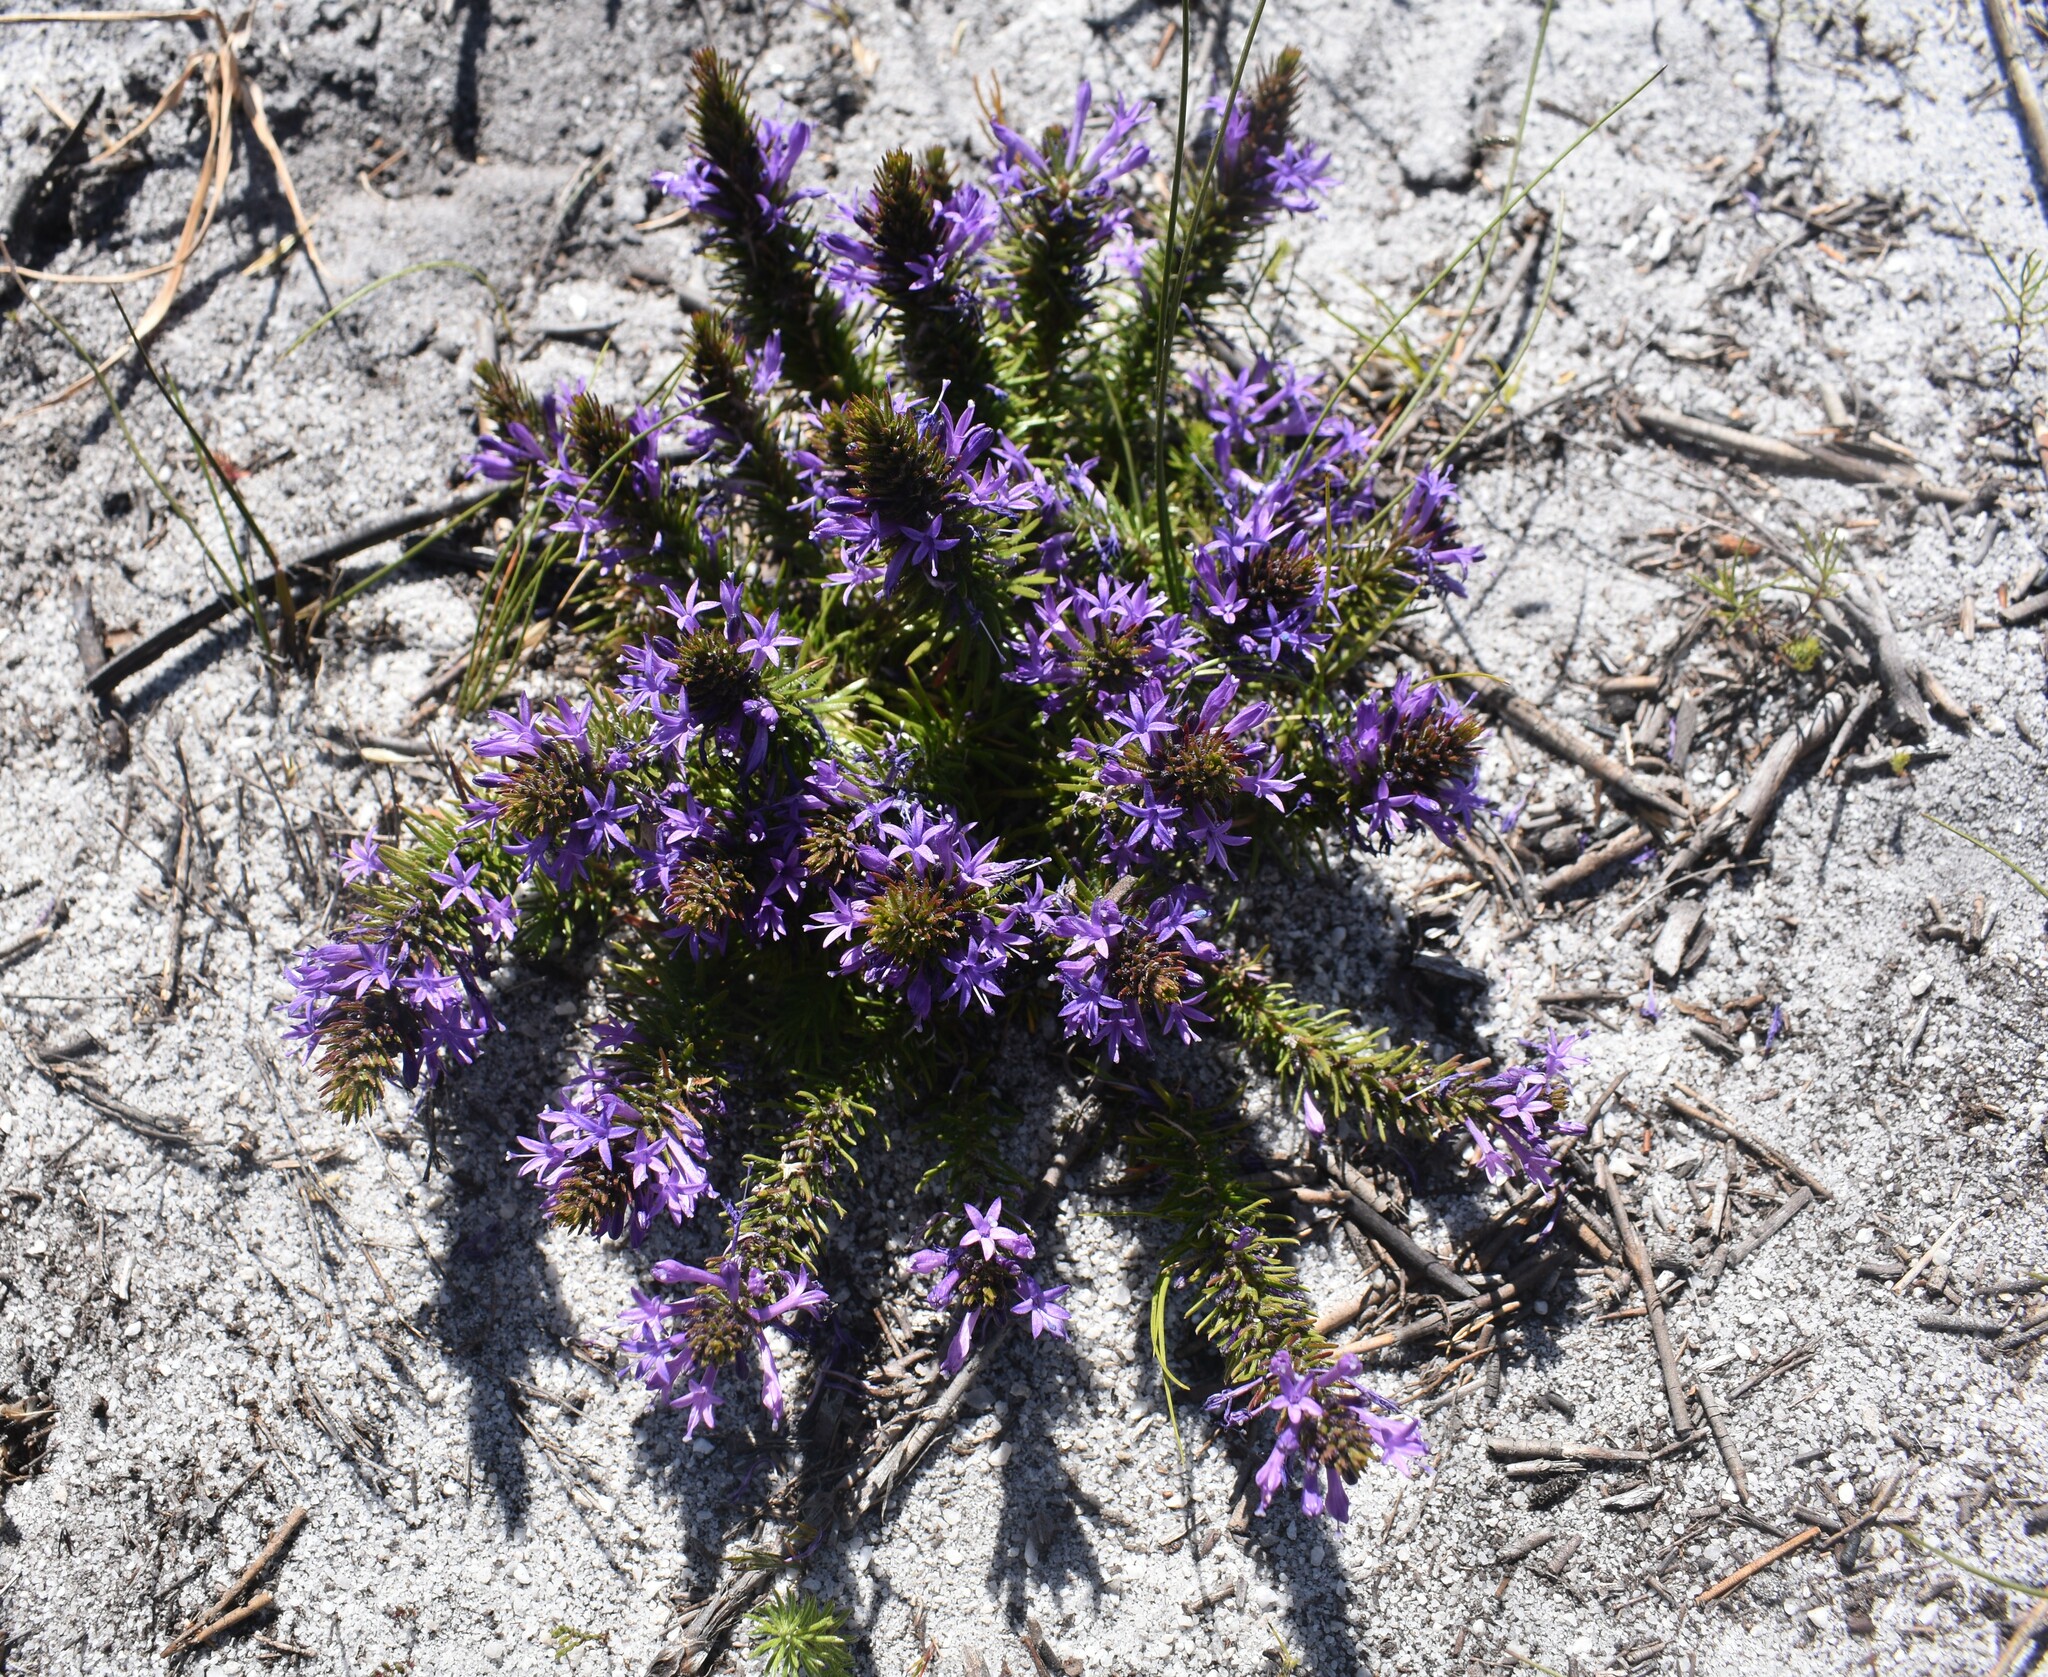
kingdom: Plantae
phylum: Tracheophyta
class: Magnoliopsida
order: Asterales
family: Campanulaceae
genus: Merciera
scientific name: Merciera azurea
